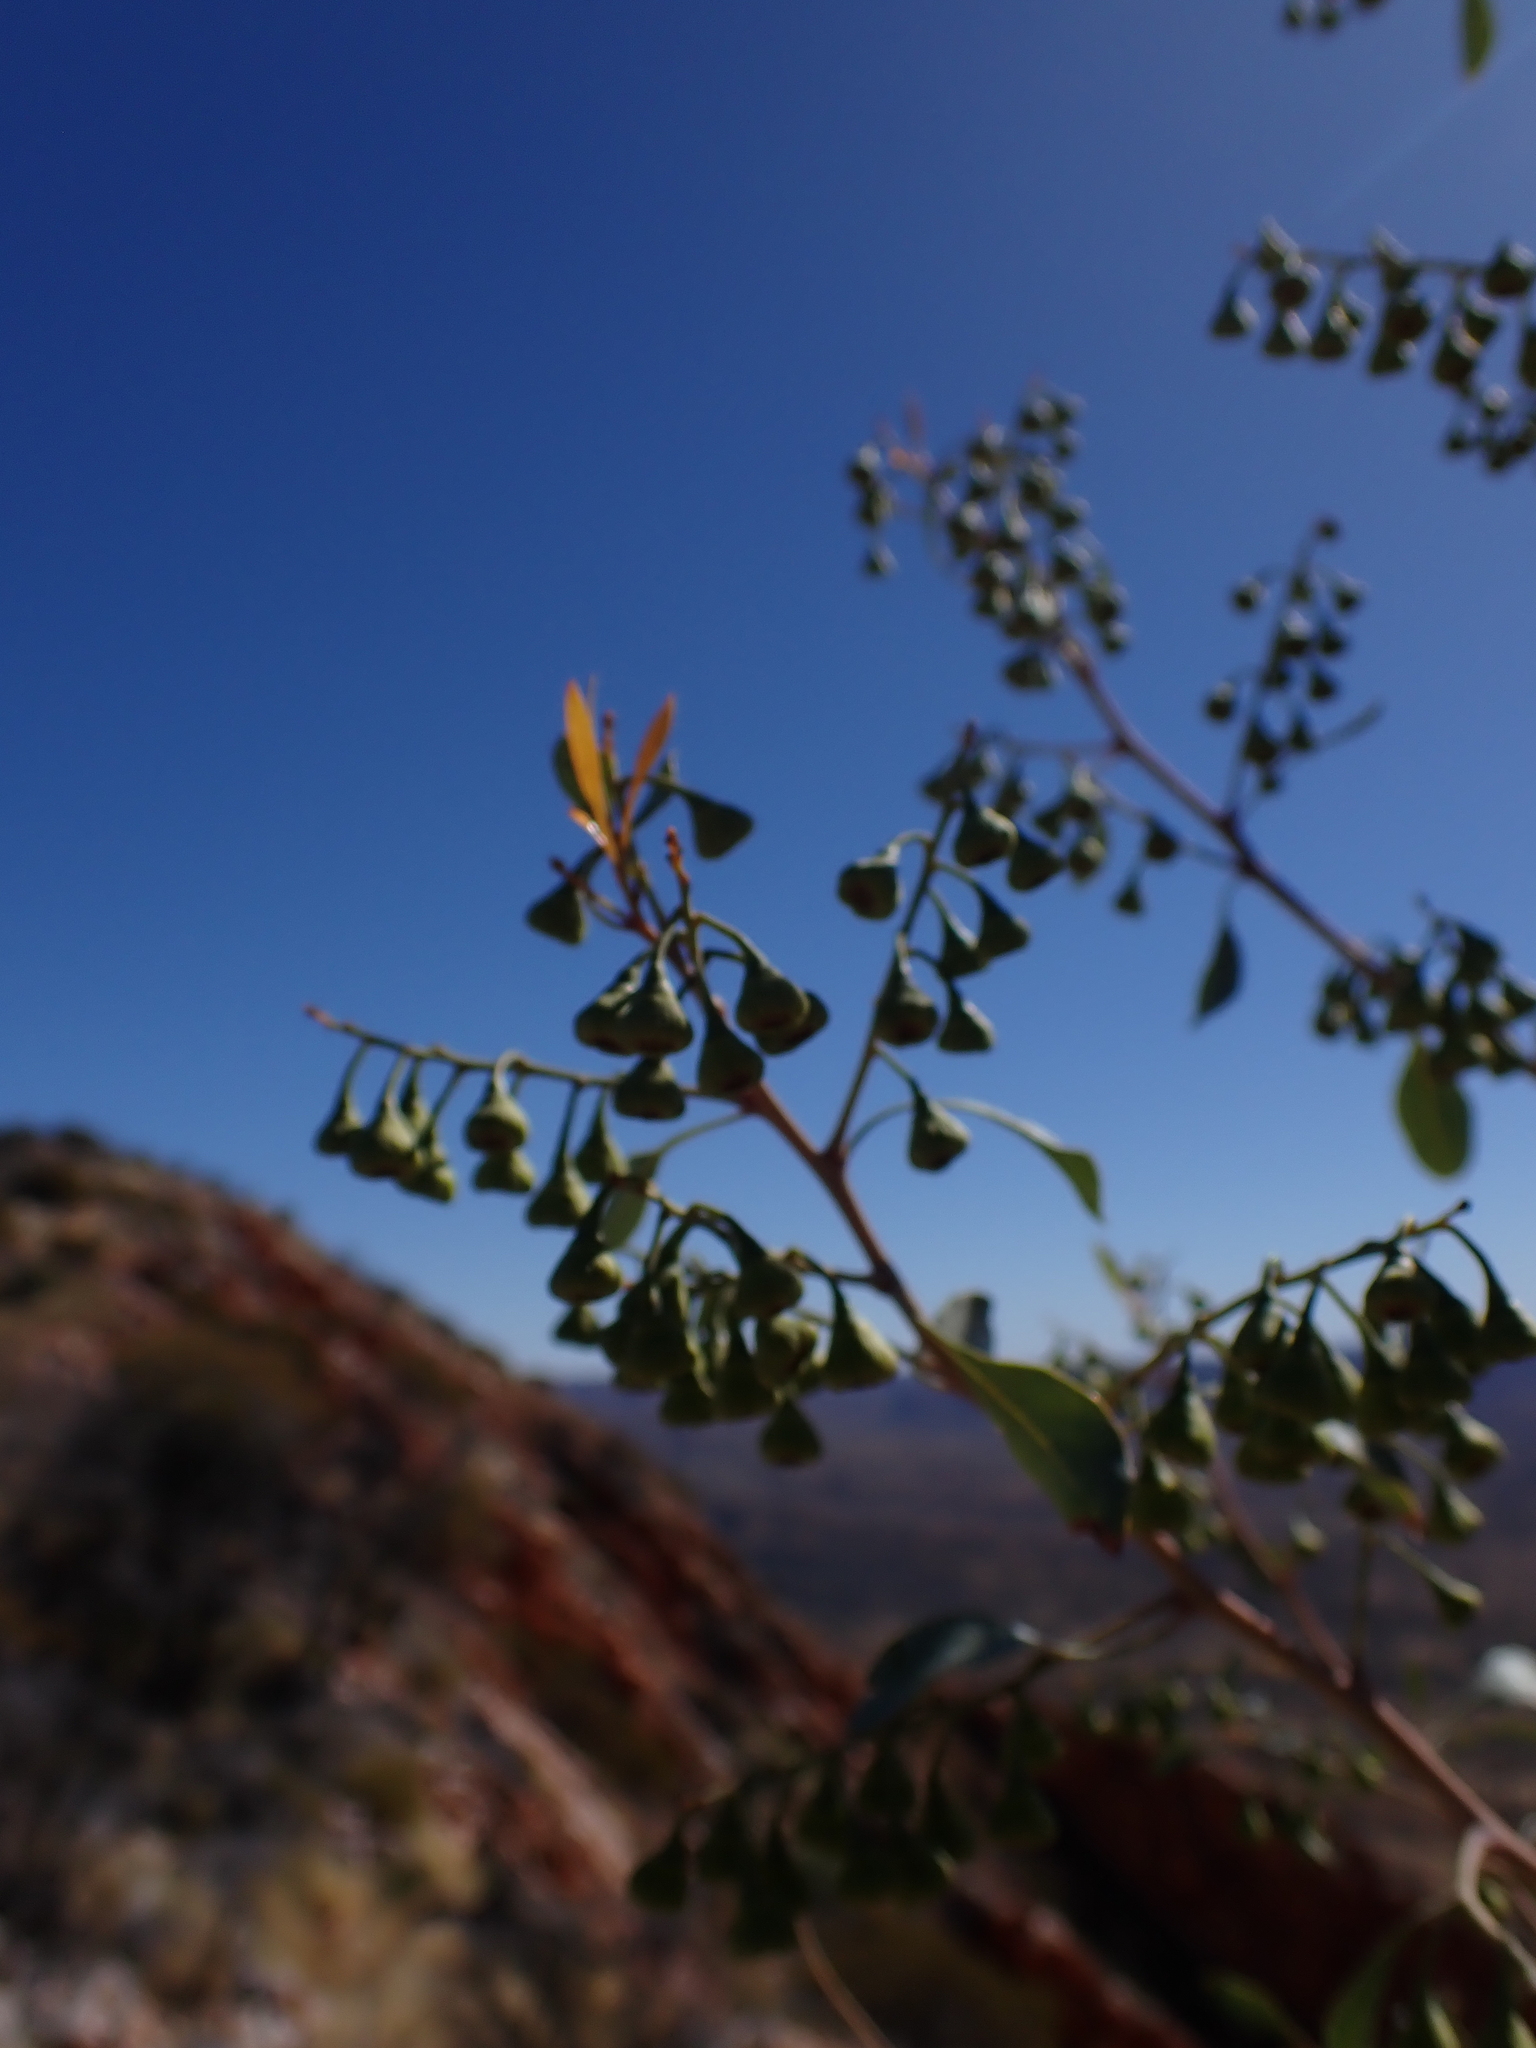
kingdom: Plantae
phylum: Tracheophyta
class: Magnoliopsida
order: Brassicales
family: Gyrostemonaceae
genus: Codonocarpus
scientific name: Codonocarpus cotinifolius
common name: Mustardtree
